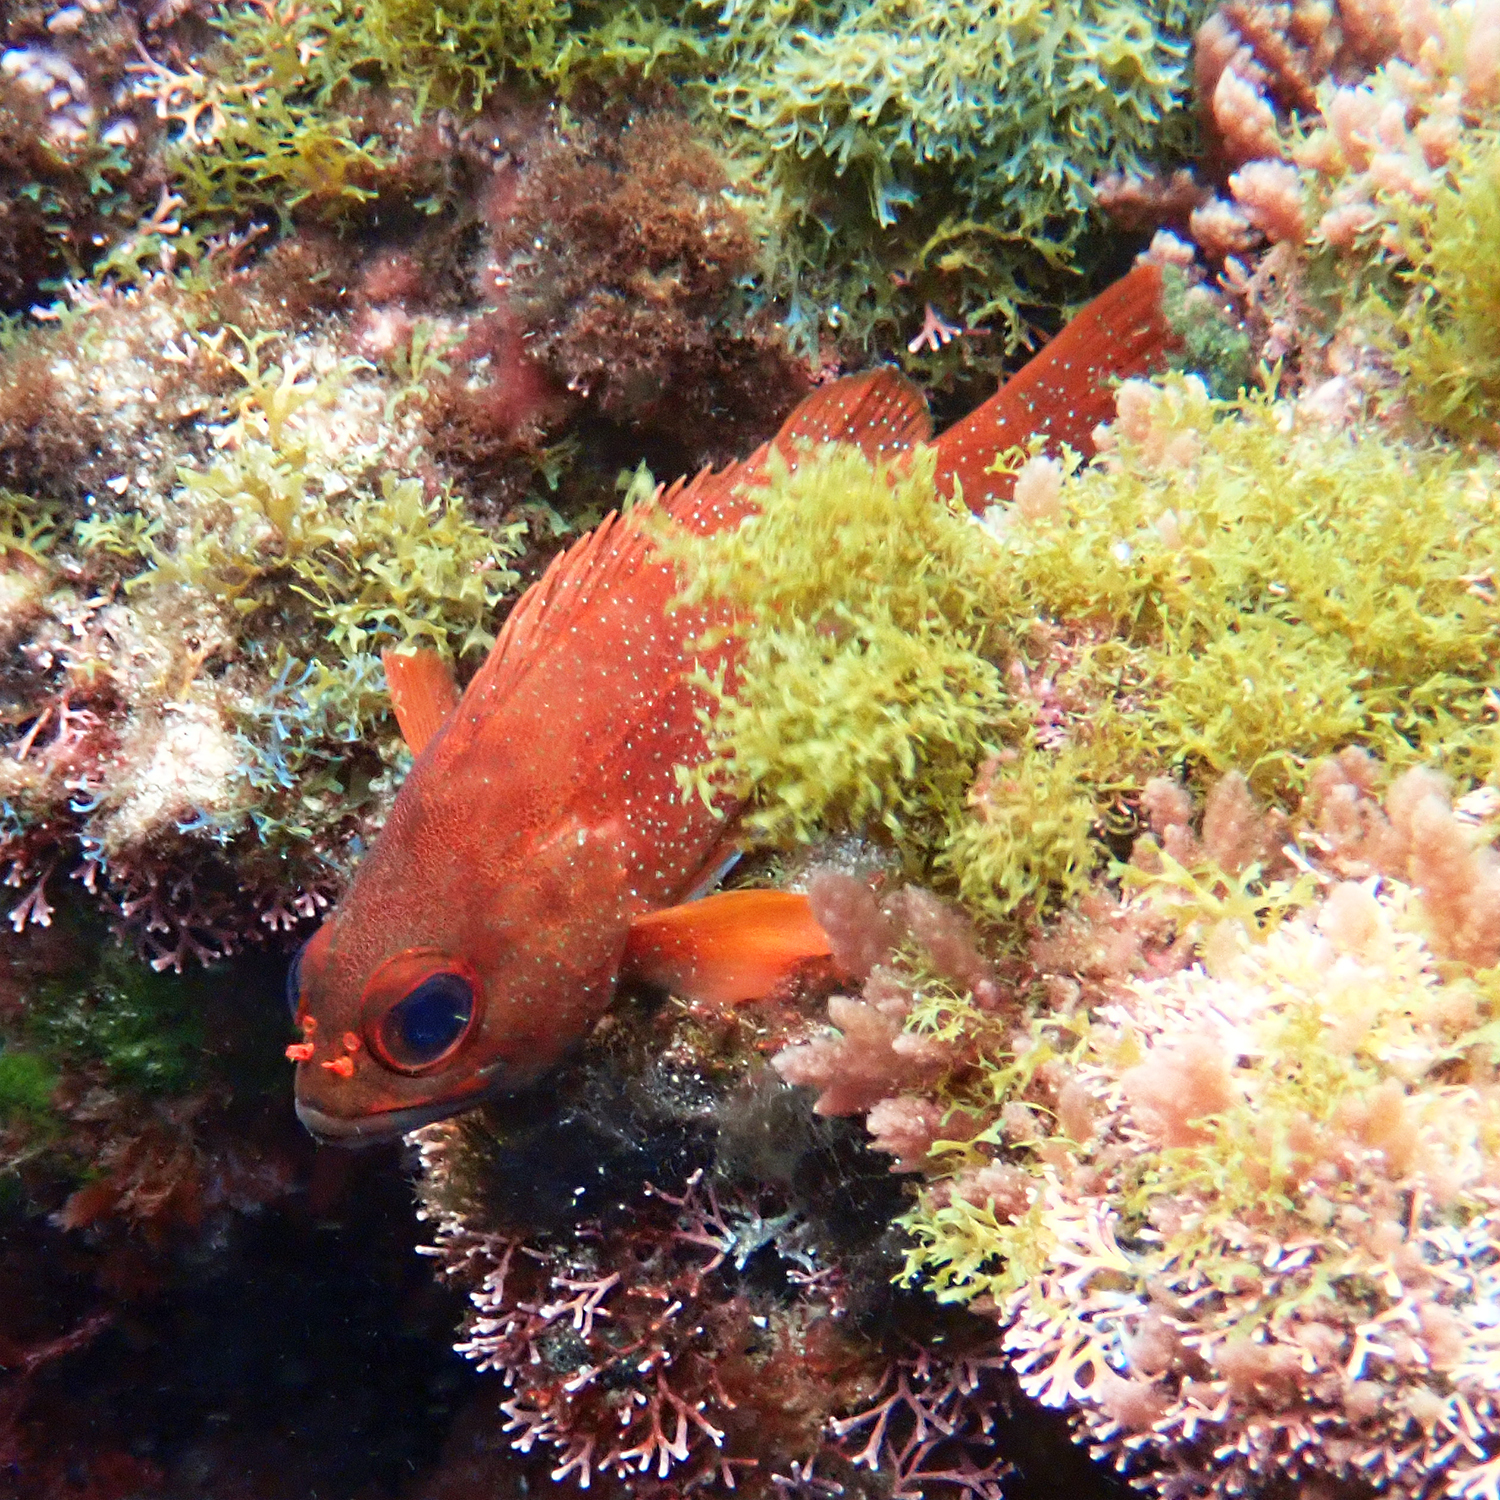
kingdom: Animalia
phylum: Chordata
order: Perciformes
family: Serranidae
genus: Trachypoma
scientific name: Trachypoma macracanthus
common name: Toadstool grouper
